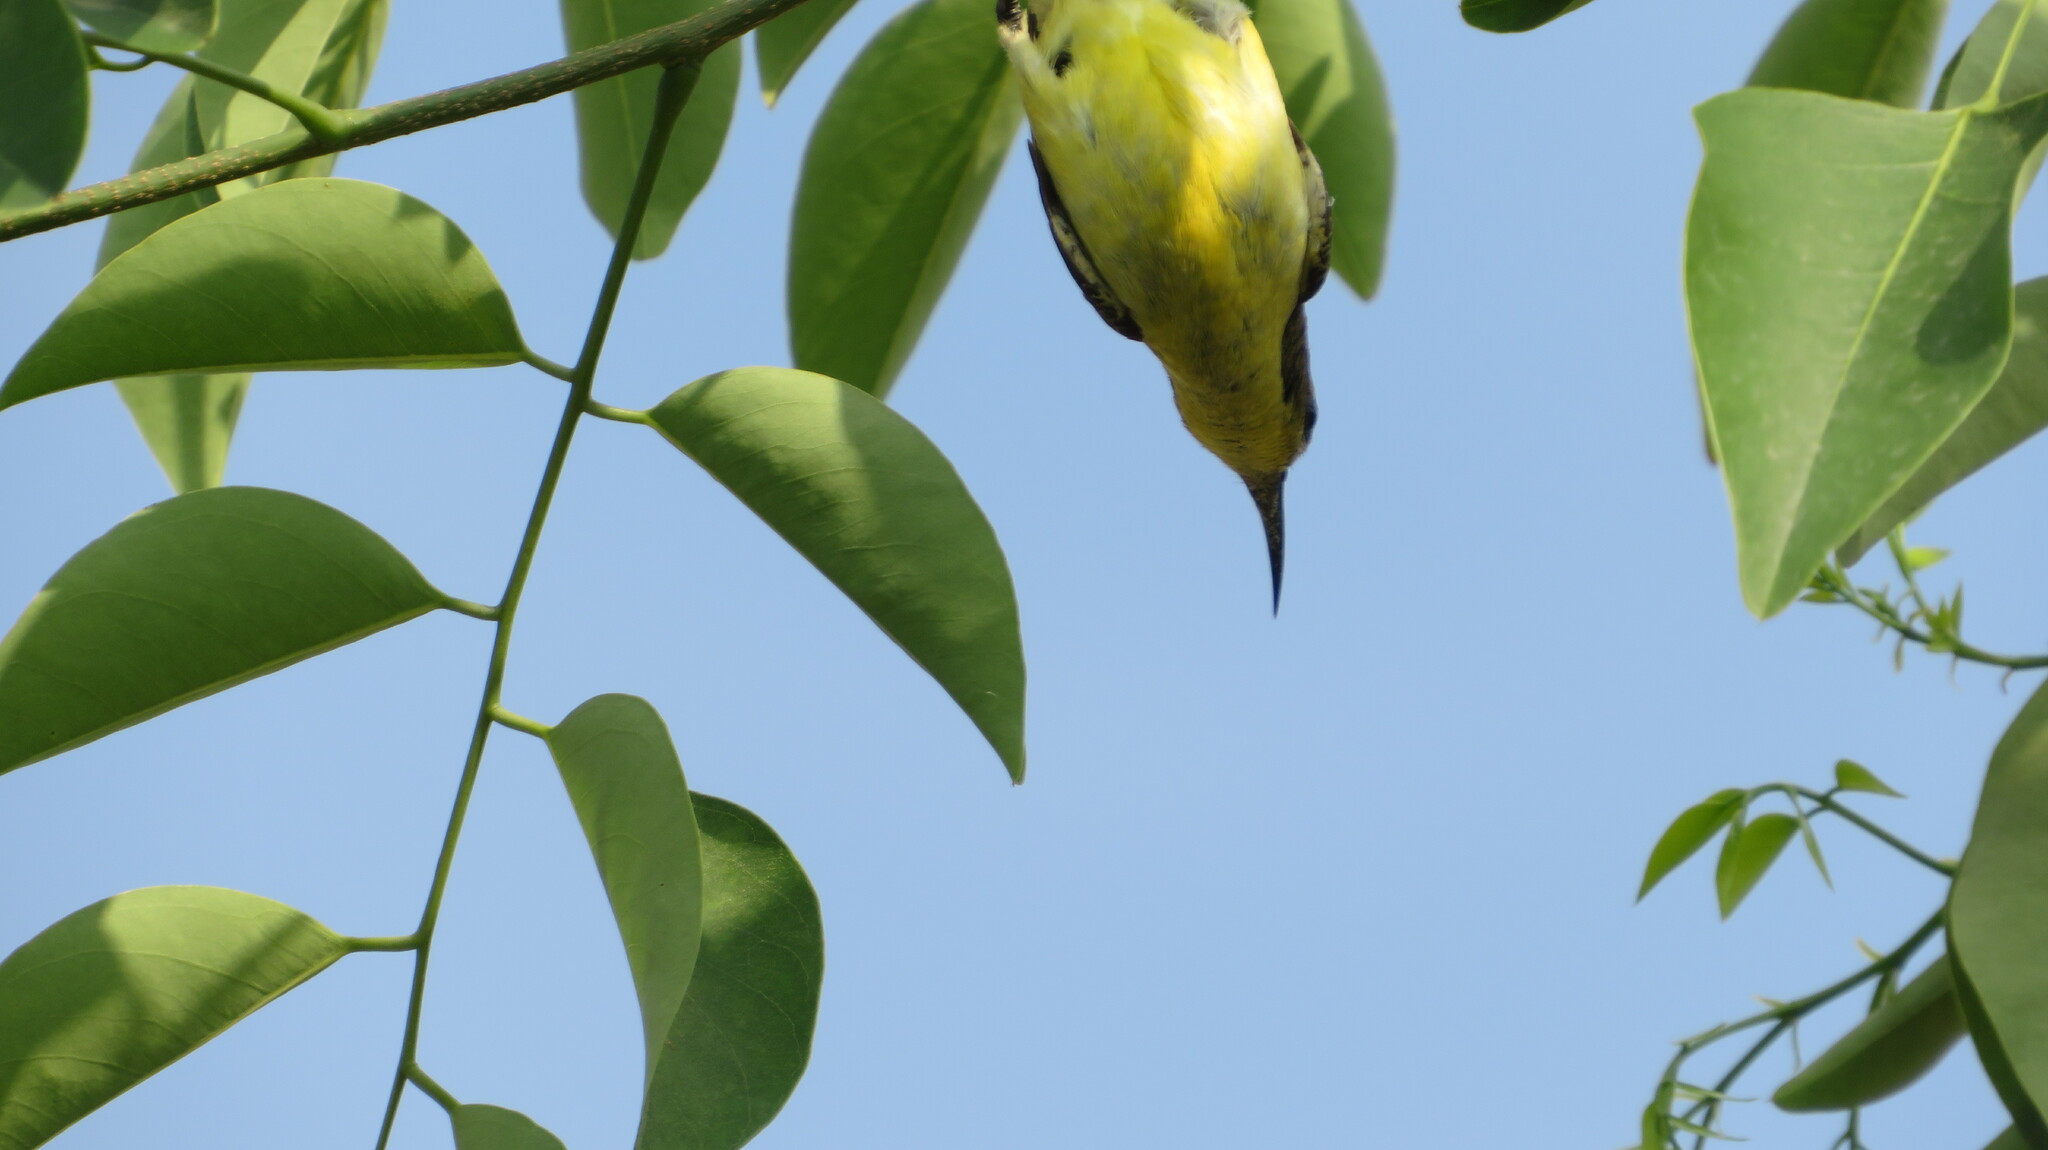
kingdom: Animalia
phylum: Chordata
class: Aves
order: Passeriformes
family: Nectariniidae
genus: Cinnyris
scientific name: Cinnyris
